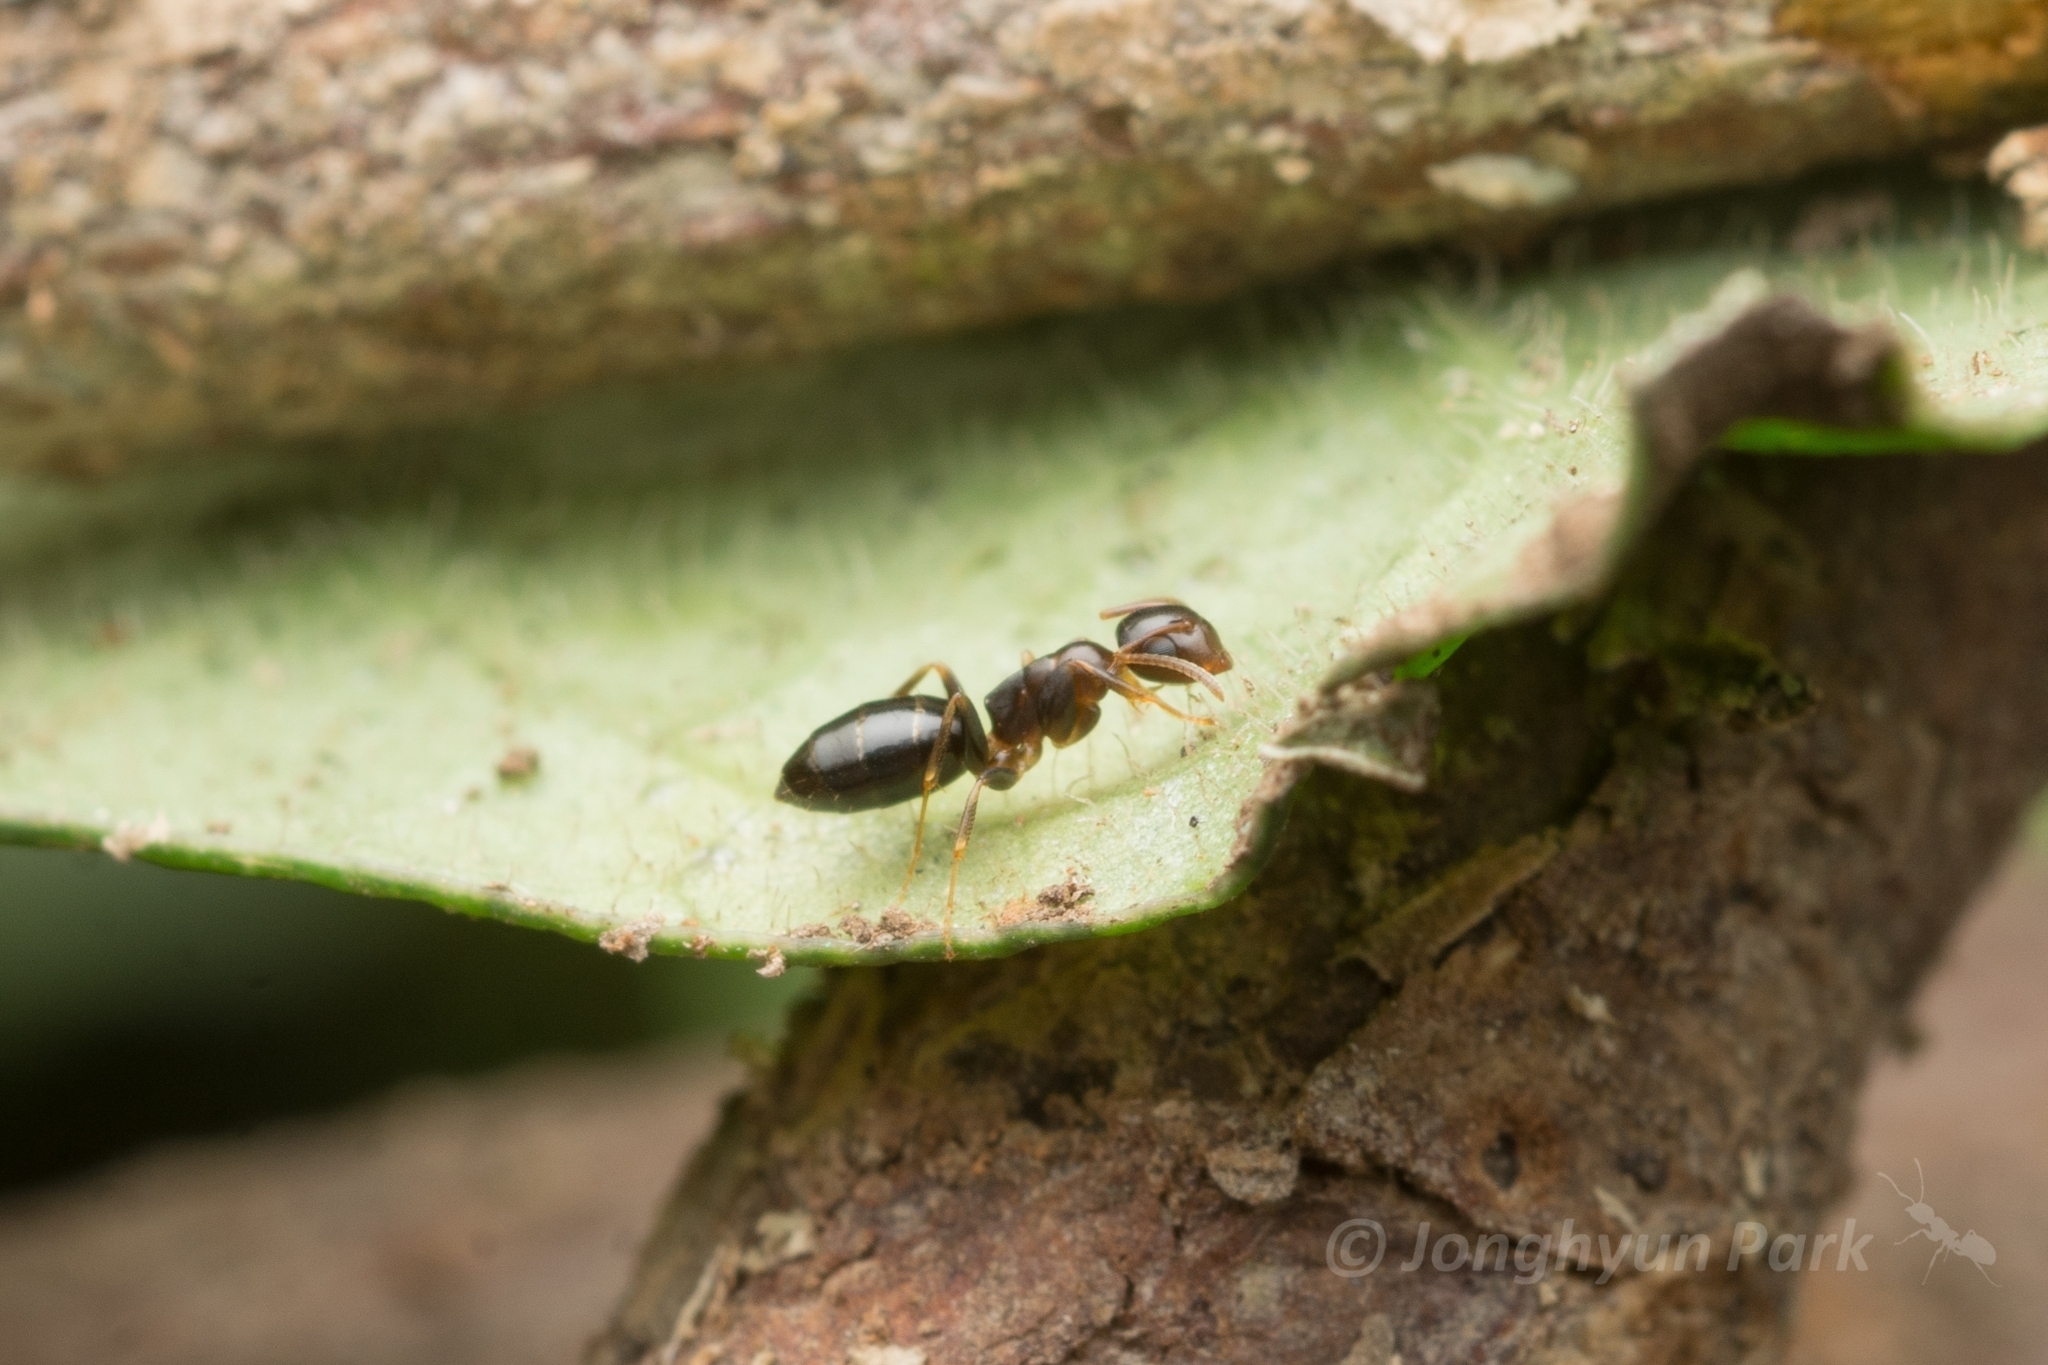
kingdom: Animalia
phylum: Arthropoda
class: Insecta
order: Hymenoptera
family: Formicidae
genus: Colobopsis
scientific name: Colobopsis
